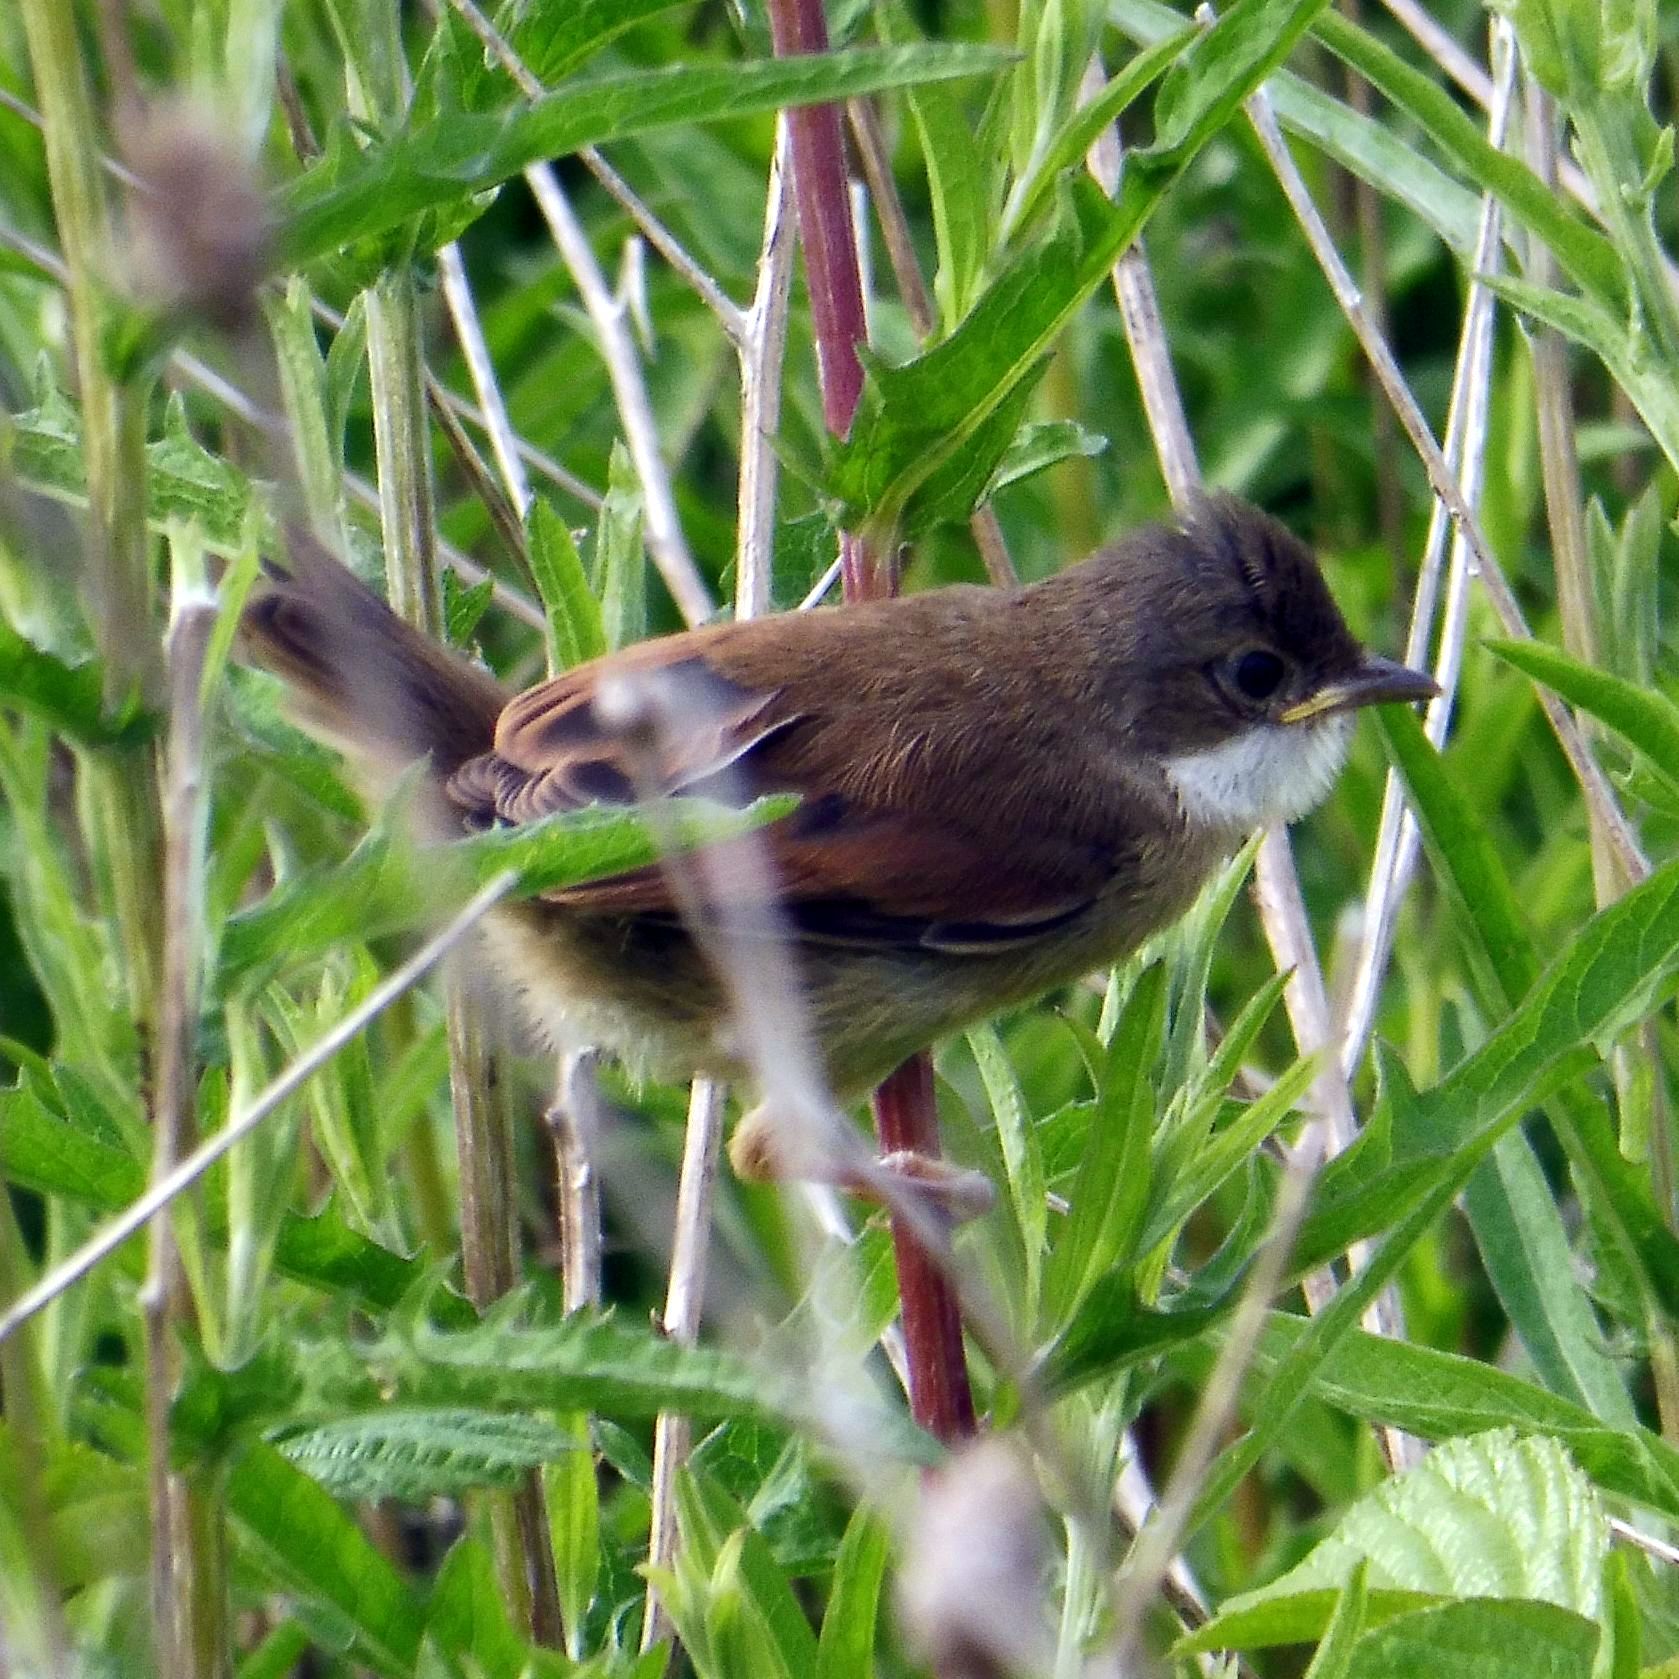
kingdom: Animalia
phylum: Chordata
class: Aves
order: Passeriformes
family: Sylviidae
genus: Sylvia
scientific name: Sylvia communis
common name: Common whitethroat
